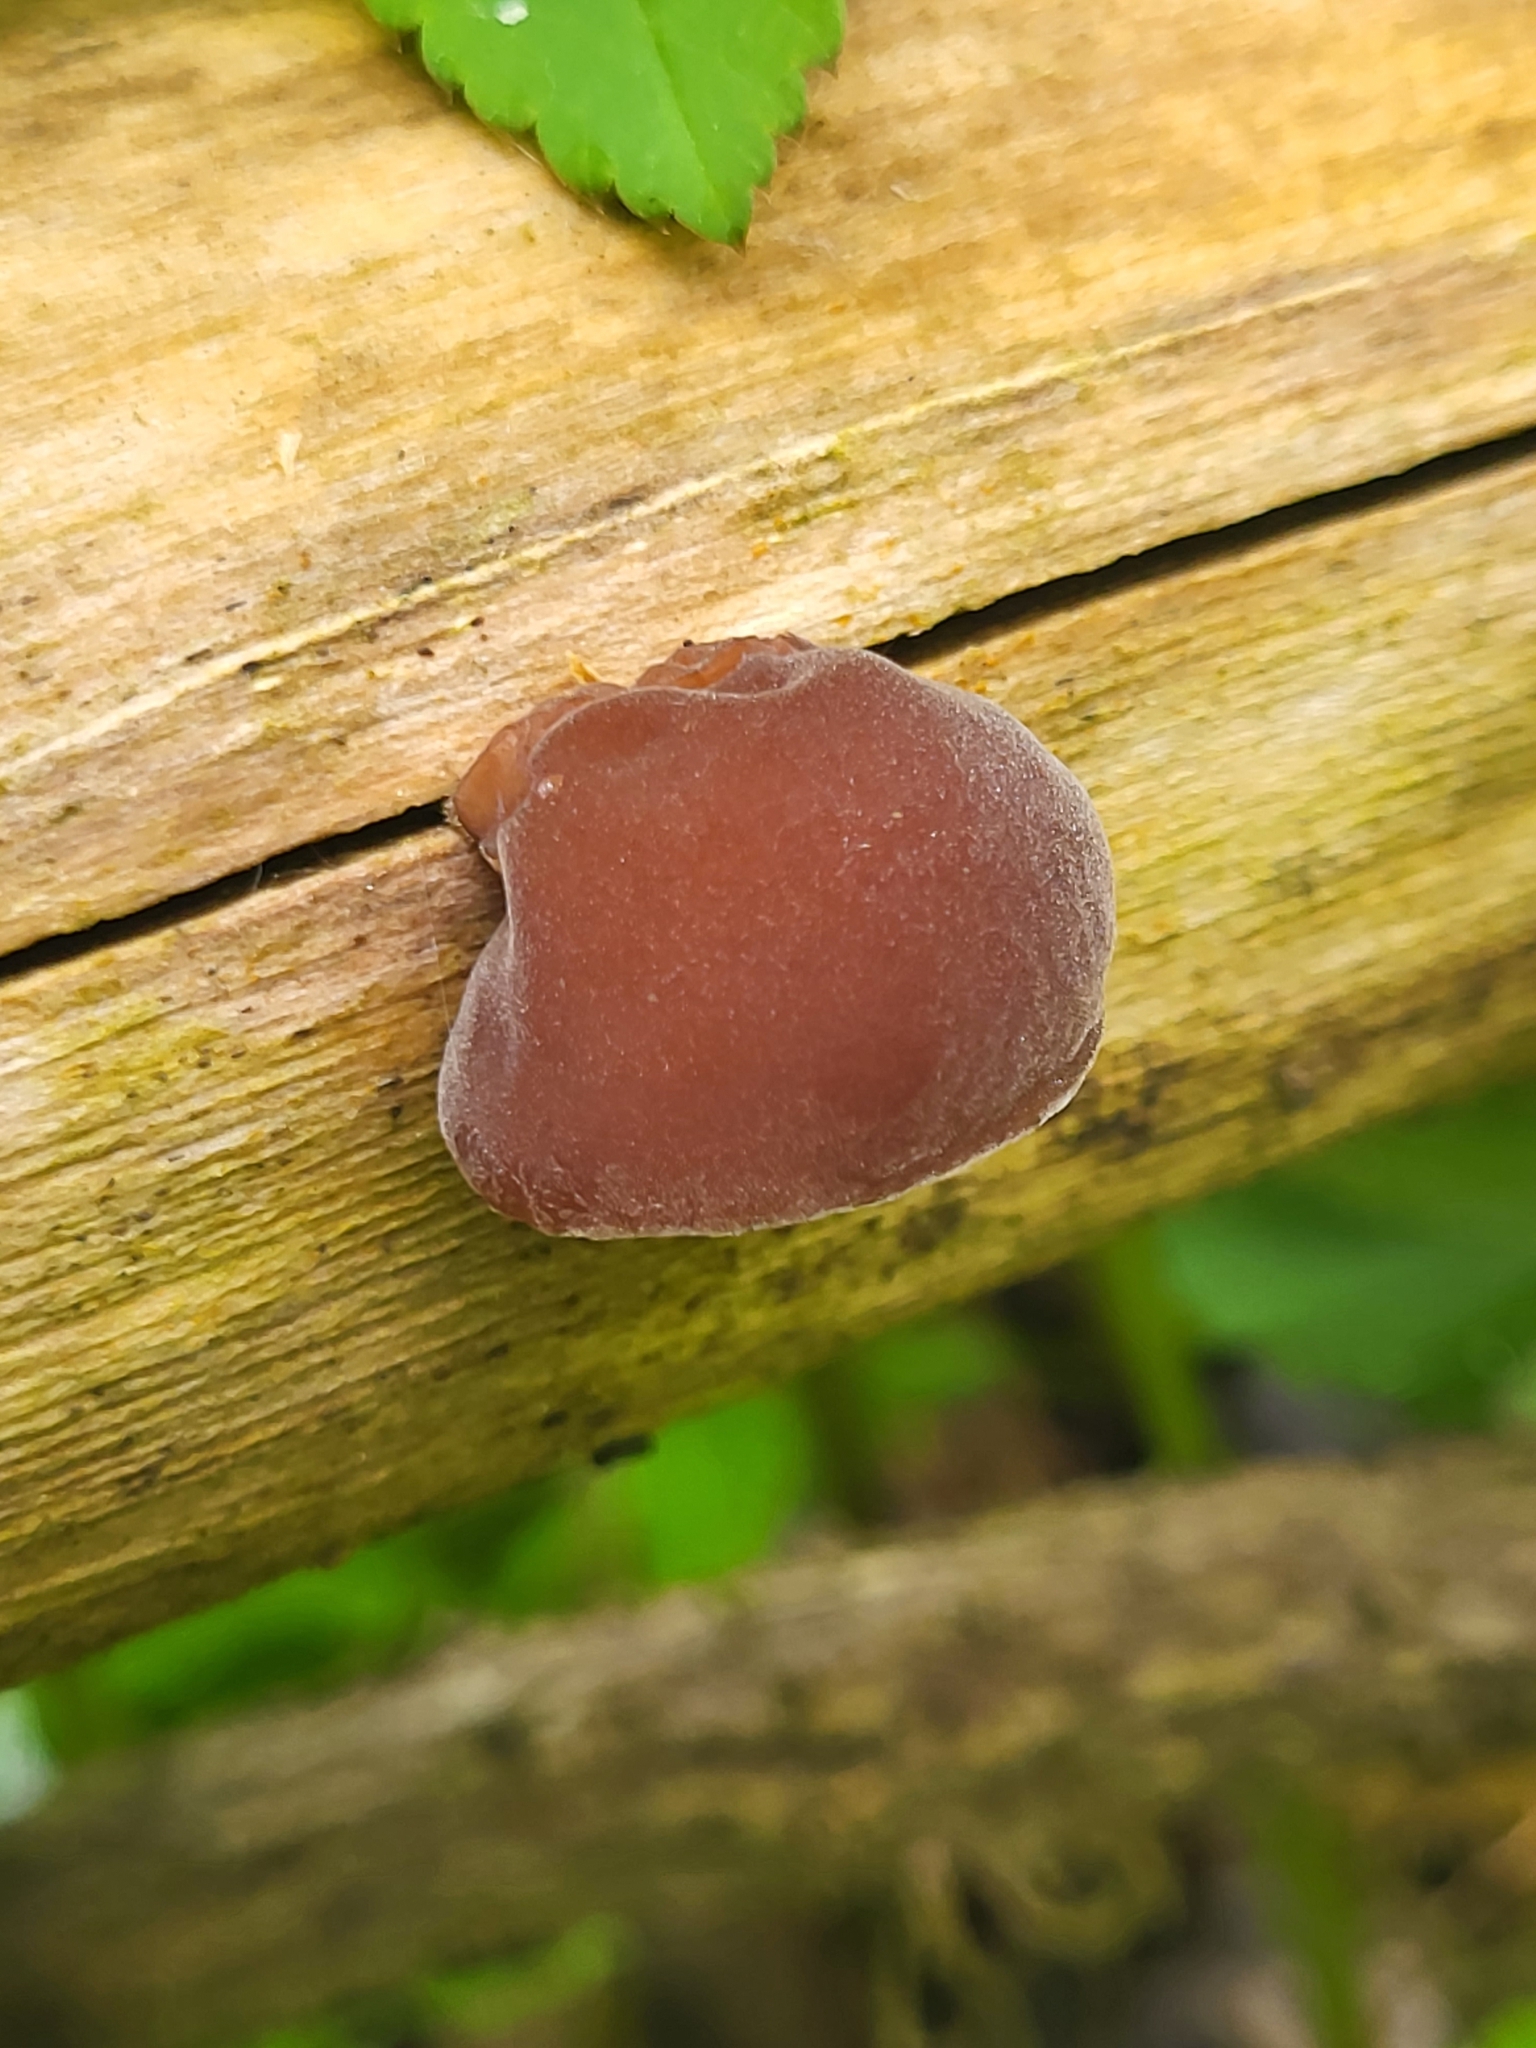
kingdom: Fungi
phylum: Basidiomycota
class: Agaricomycetes
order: Auriculariales
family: Auriculariaceae
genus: Auricularia
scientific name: Auricularia auricula-judae
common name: Jelly ear
